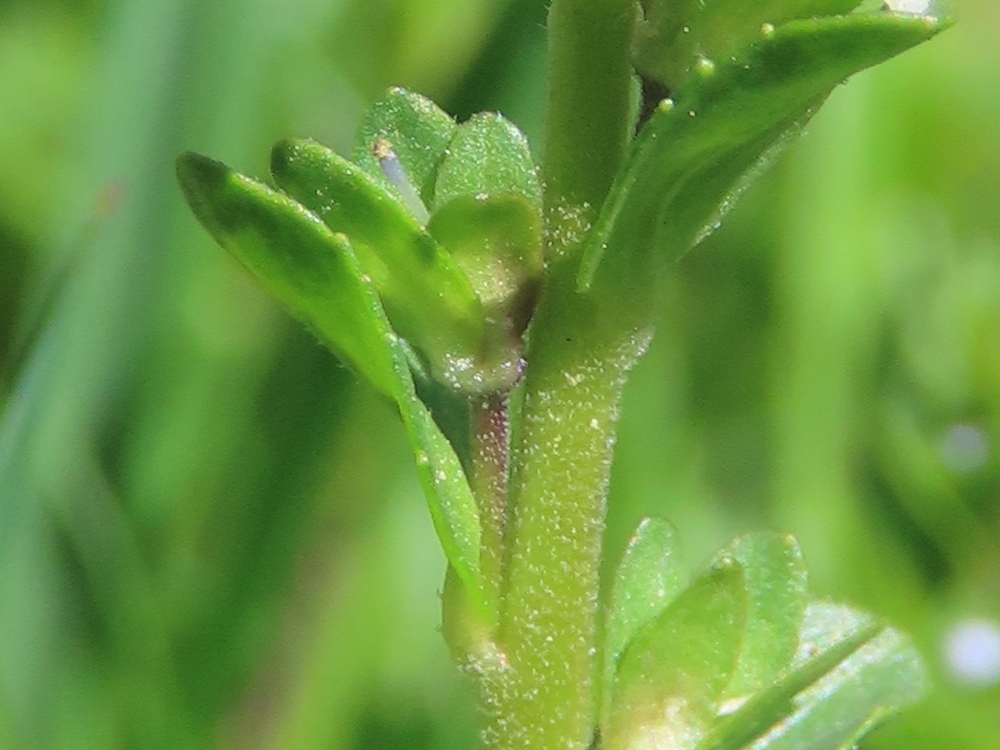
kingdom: Plantae
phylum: Tracheophyta
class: Magnoliopsida
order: Lamiales
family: Plantaginaceae
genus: Veronica
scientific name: Veronica serpyllifolia
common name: Thyme-leaved speedwell
